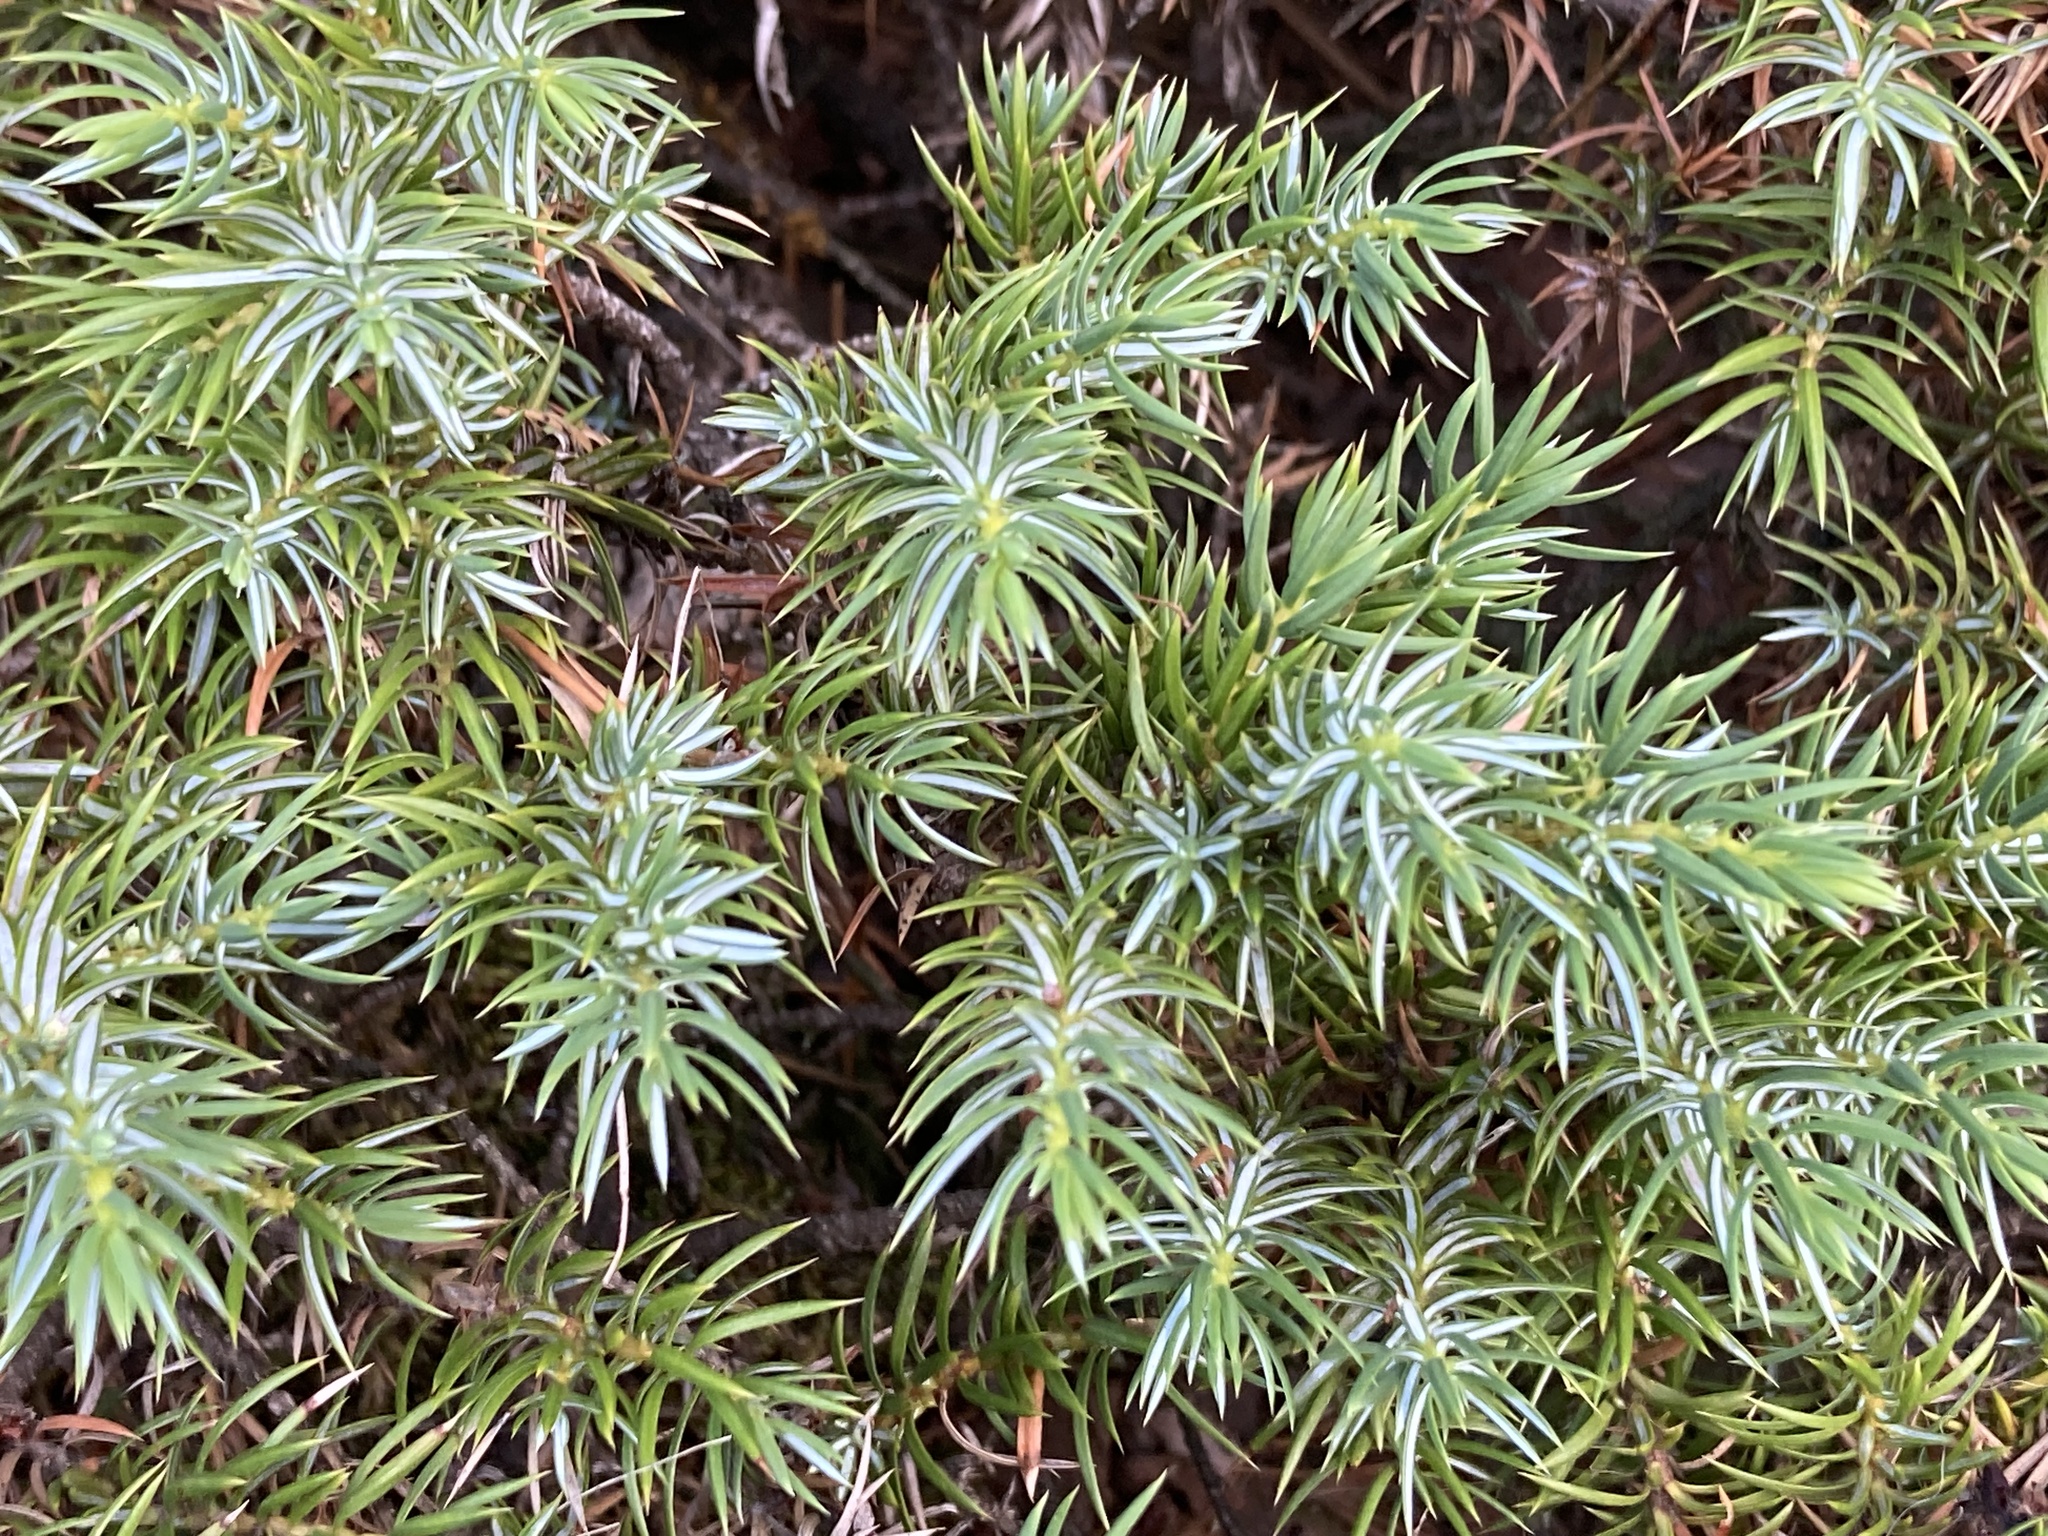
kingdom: Plantae
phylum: Tracheophyta
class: Pinopsida
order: Pinales
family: Cupressaceae
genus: Juniperus
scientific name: Juniperus communis
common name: Common juniper
